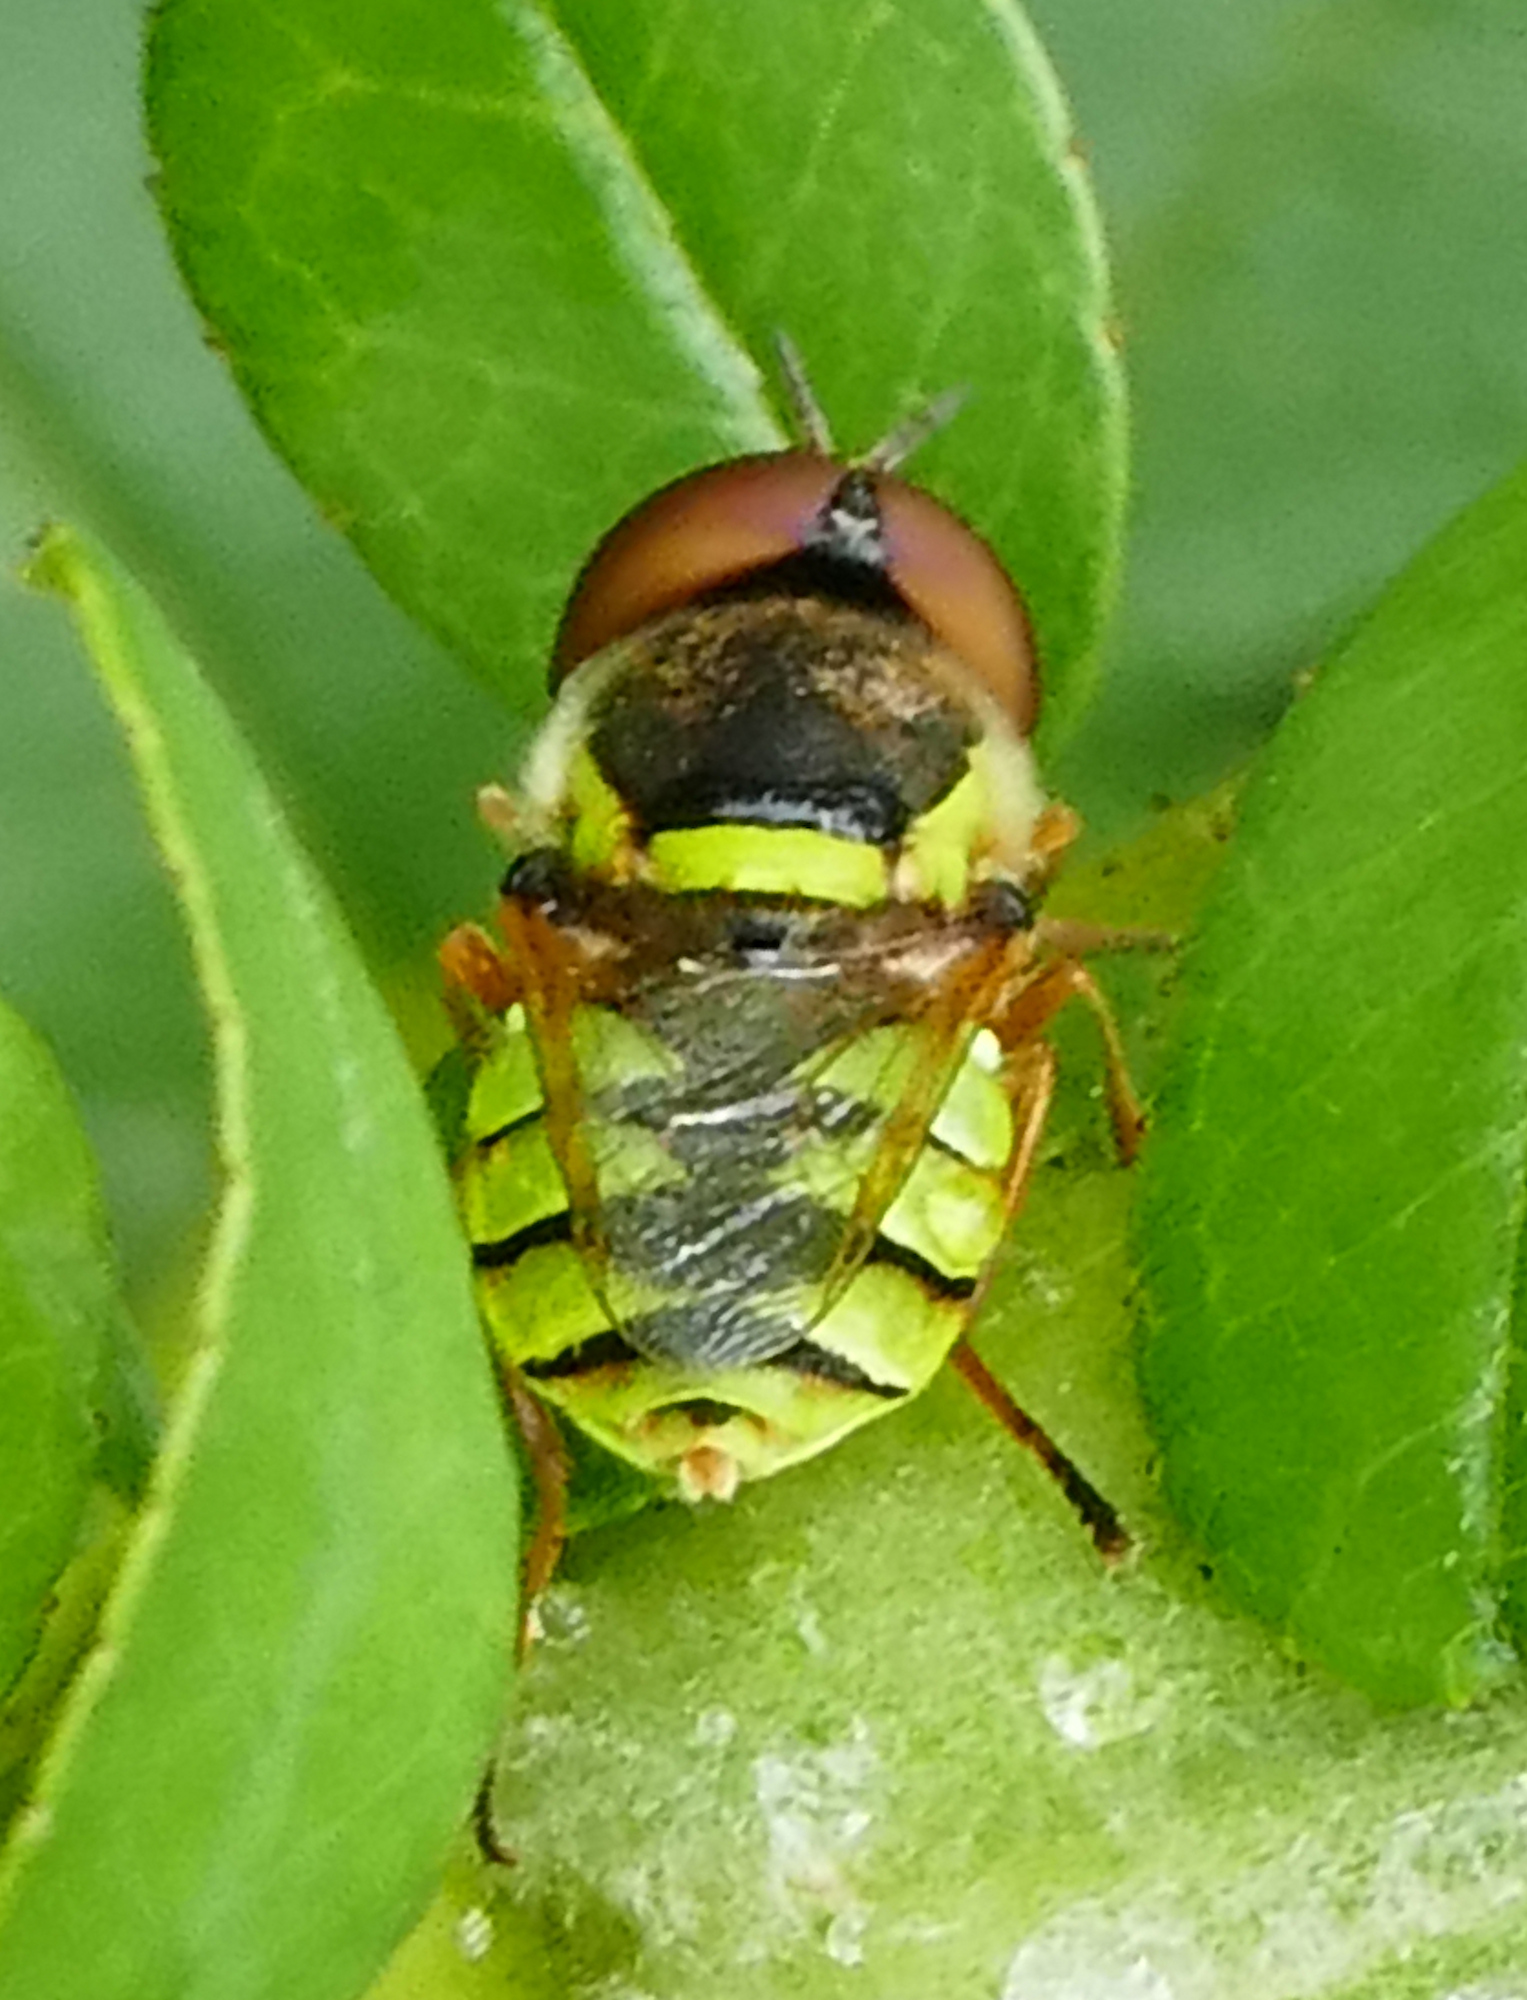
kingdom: Animalia
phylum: Arthropoda
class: Insecta
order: Diptera
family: Stratiomyidae
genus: Odontomyia
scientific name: Odontomyia cincta
